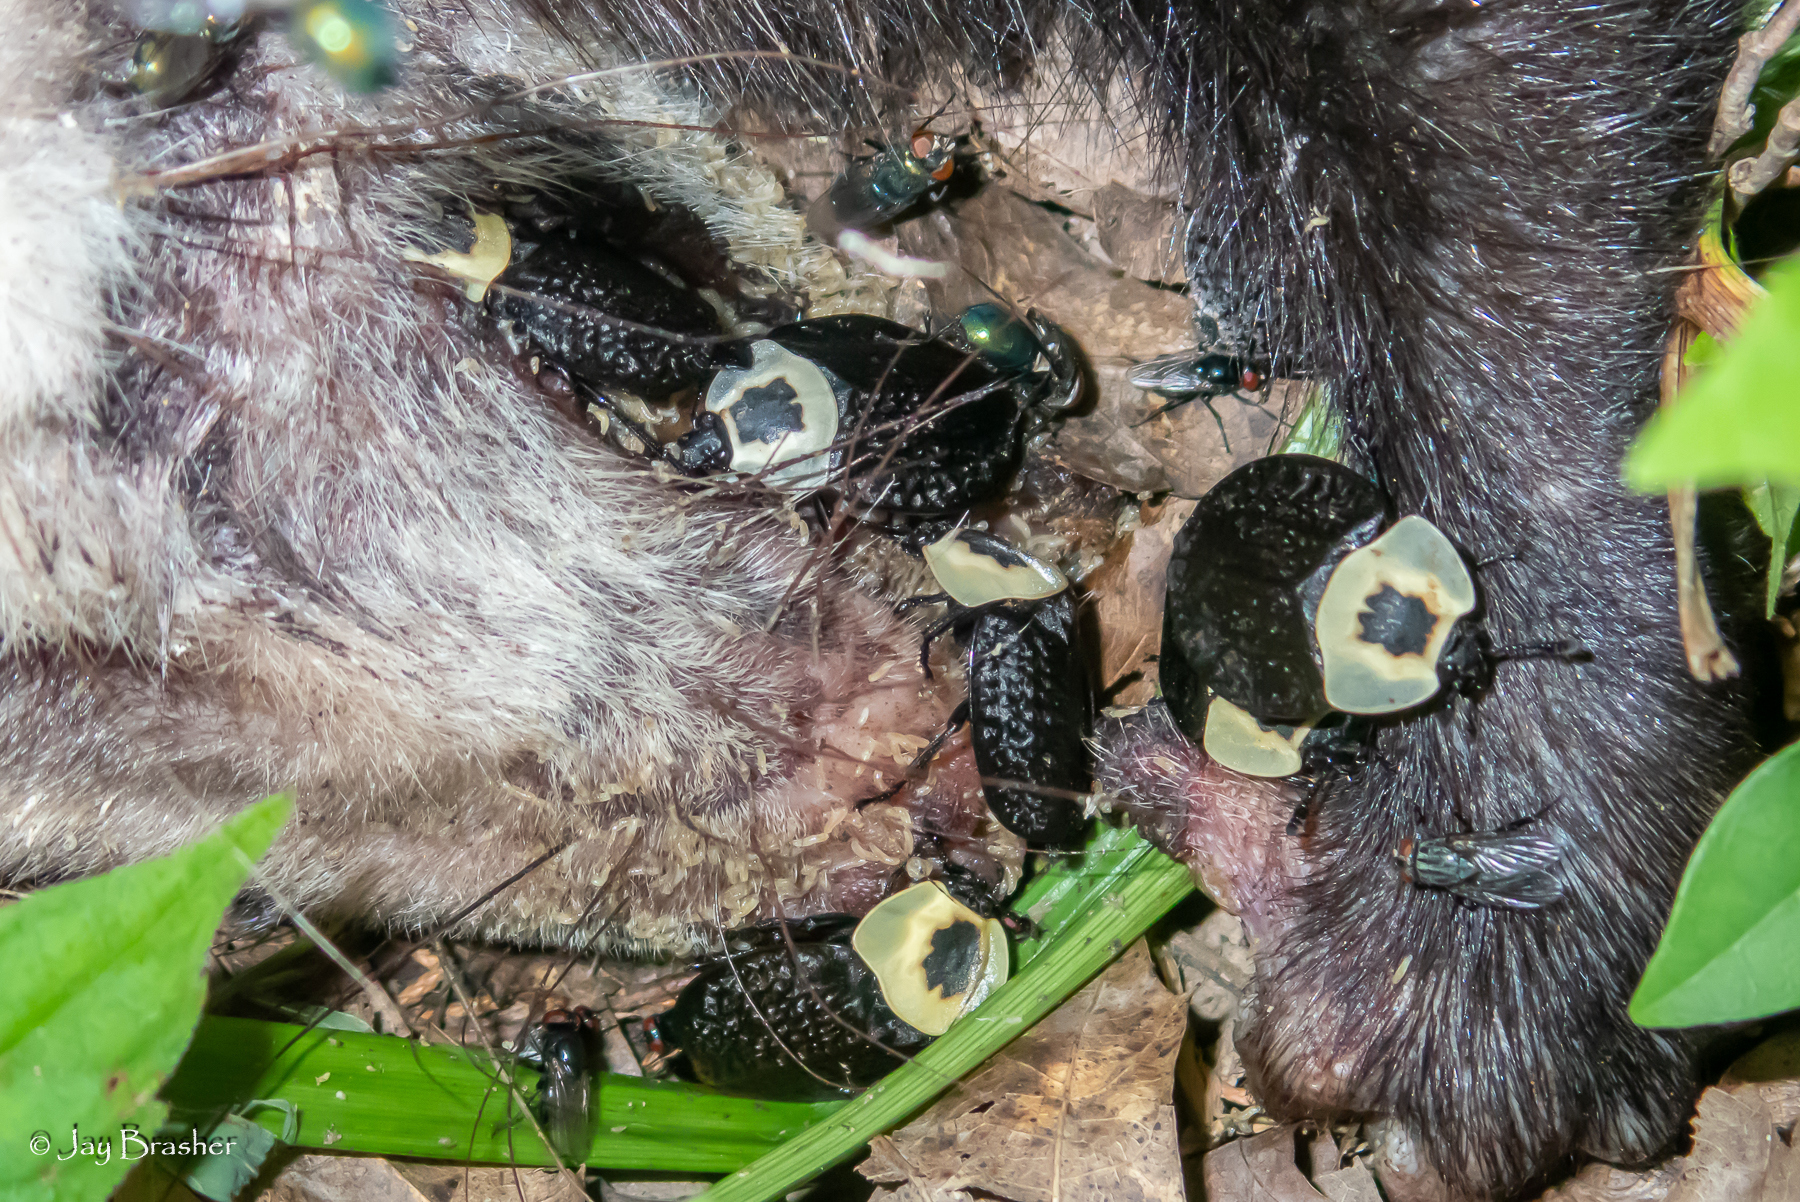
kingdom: Animalia
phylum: Arthropoda
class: Insecta
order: Coleoptera
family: Staphylinidae
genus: Necrophila
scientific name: Necrophila americana
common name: American carrion beetle
